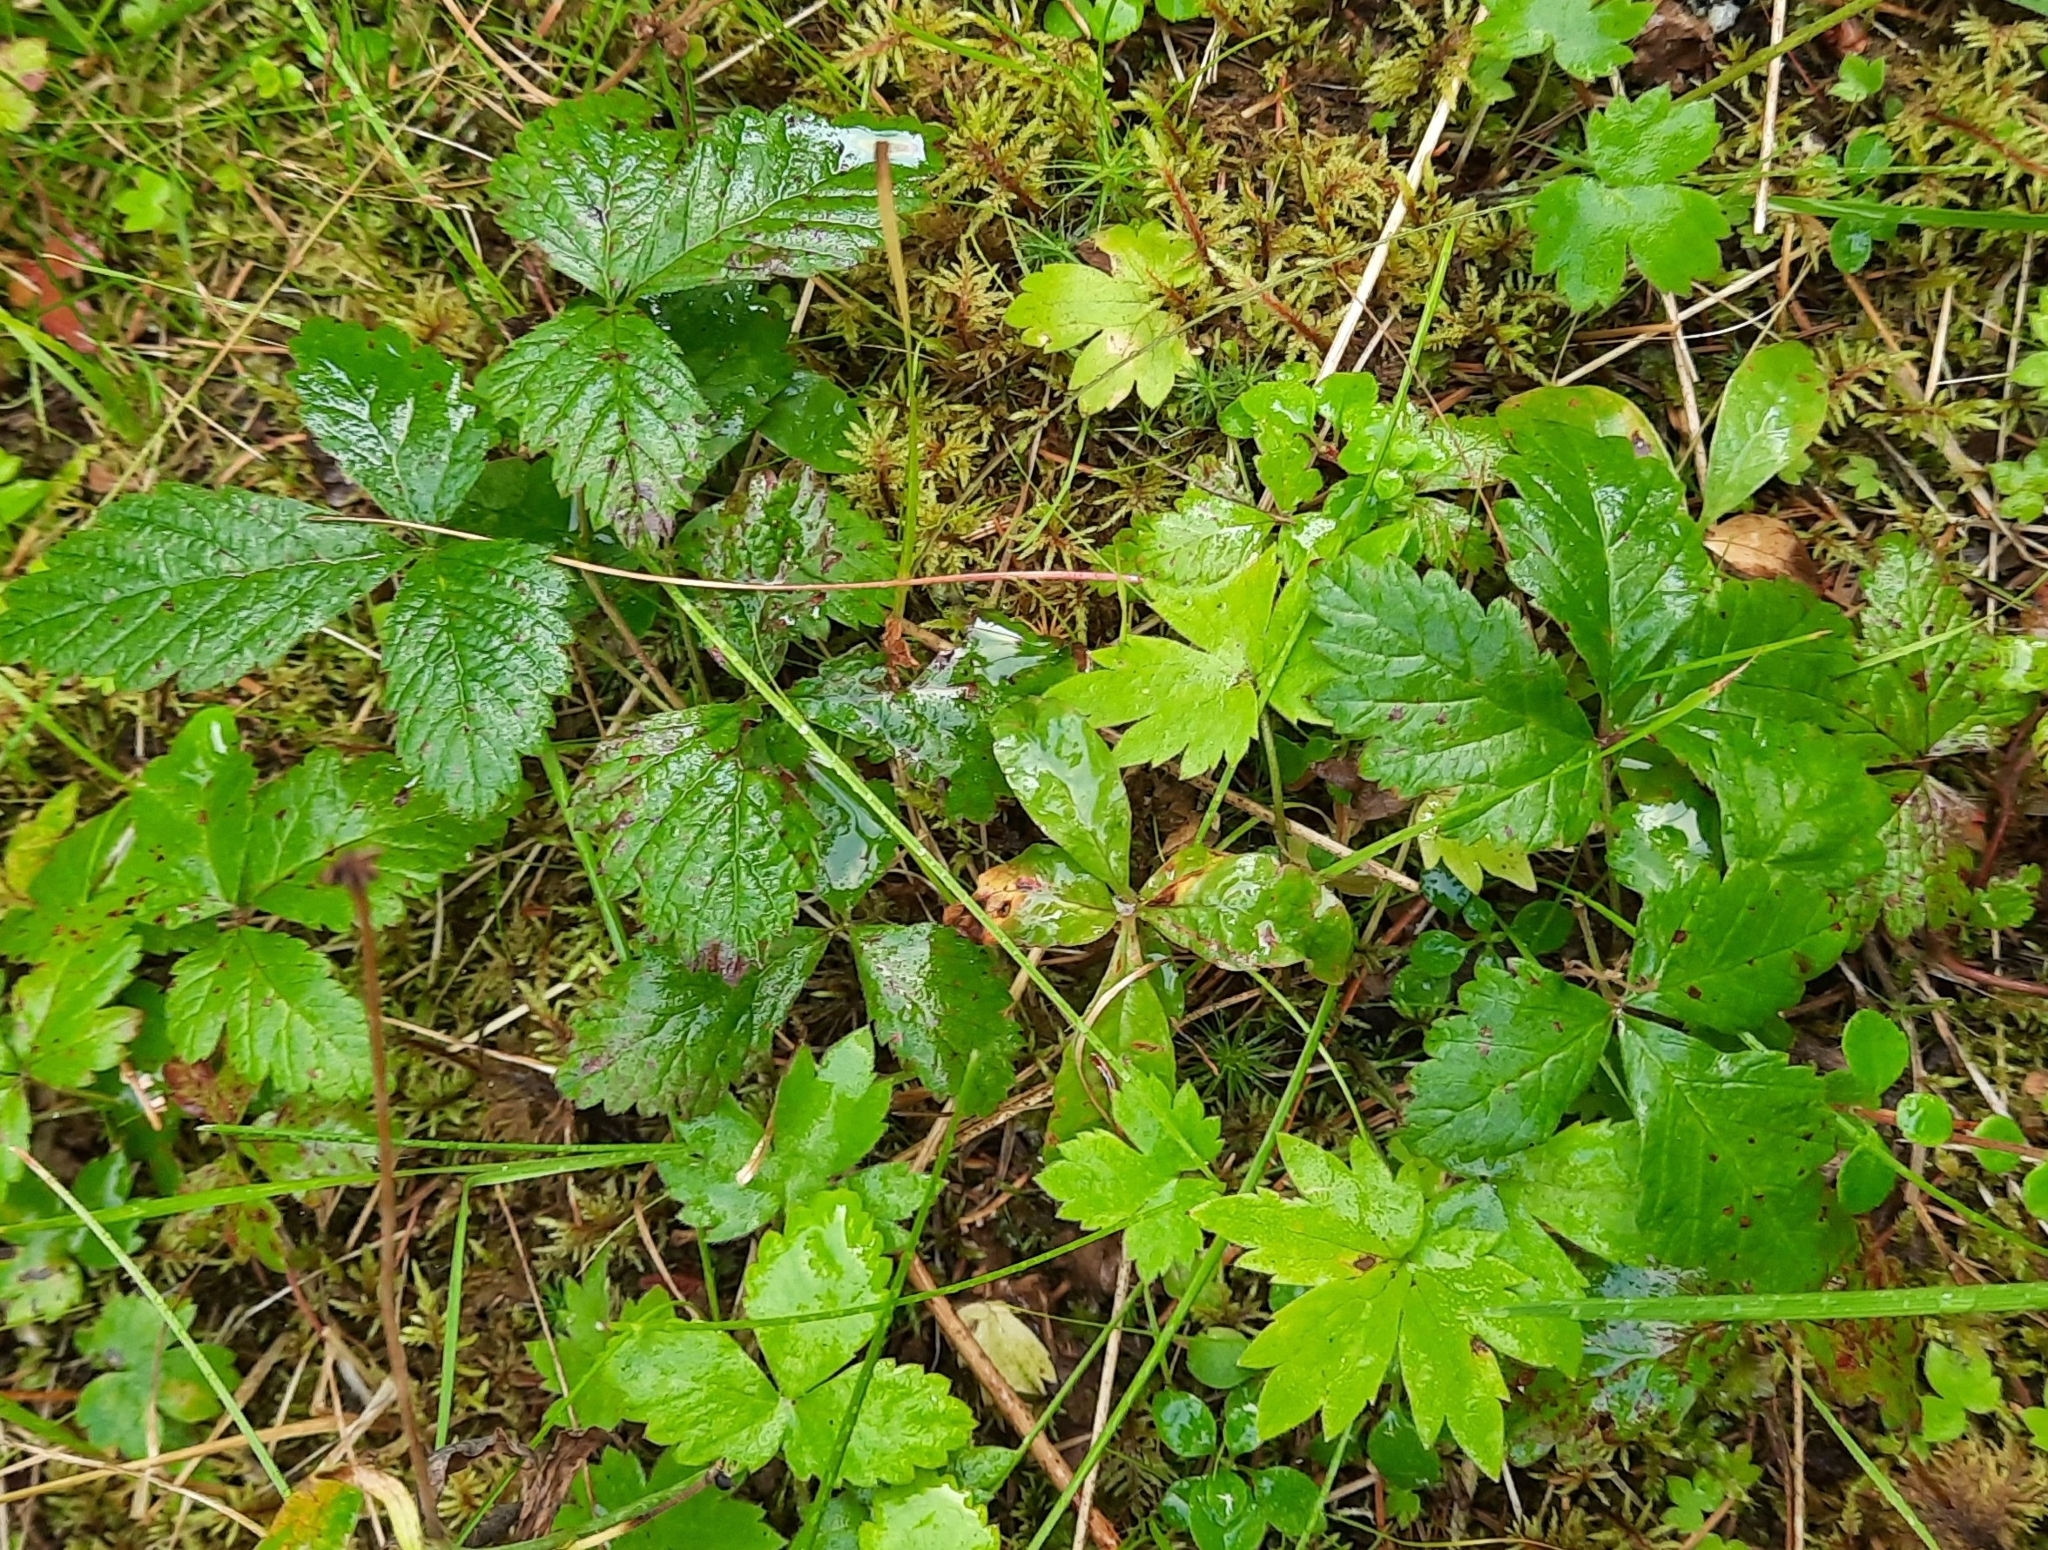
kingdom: Plantae
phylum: Tracheophyta
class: Magnoliopsida
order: Rosales
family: Rosaceae
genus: Rubus
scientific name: Rubus arcticus
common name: Arctic bramble
